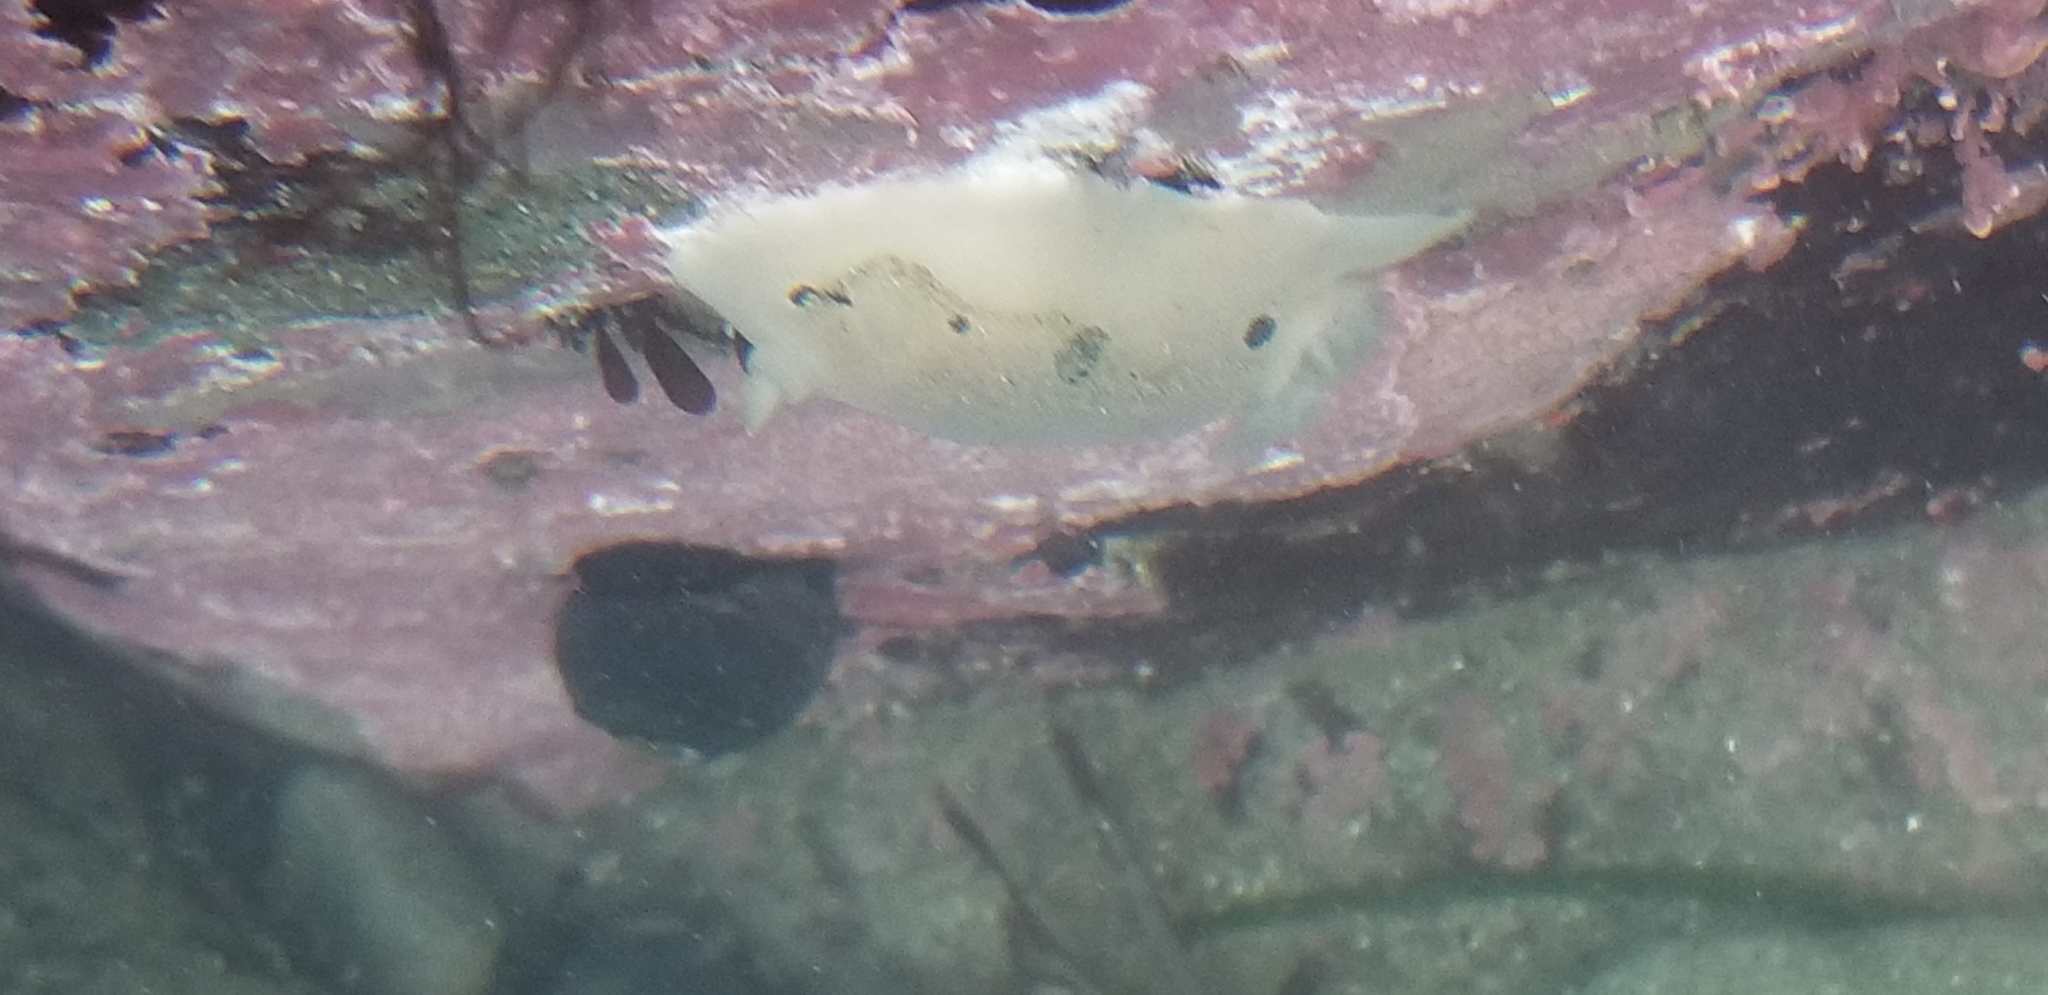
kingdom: Animalia
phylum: Mollusca
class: Gastropoda
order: Nudibranchia
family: Discodorididae
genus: Diaulula
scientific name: Diaulula sandiegensis
